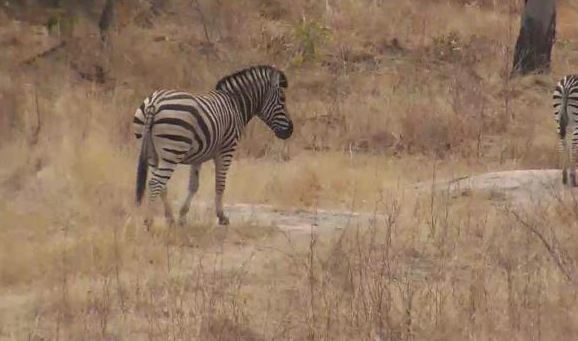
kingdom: Animalia
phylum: Chordata
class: Mammalia
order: Perissodactyla
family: Equidae
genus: Equus
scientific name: Equus quagga
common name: Plains zebra
